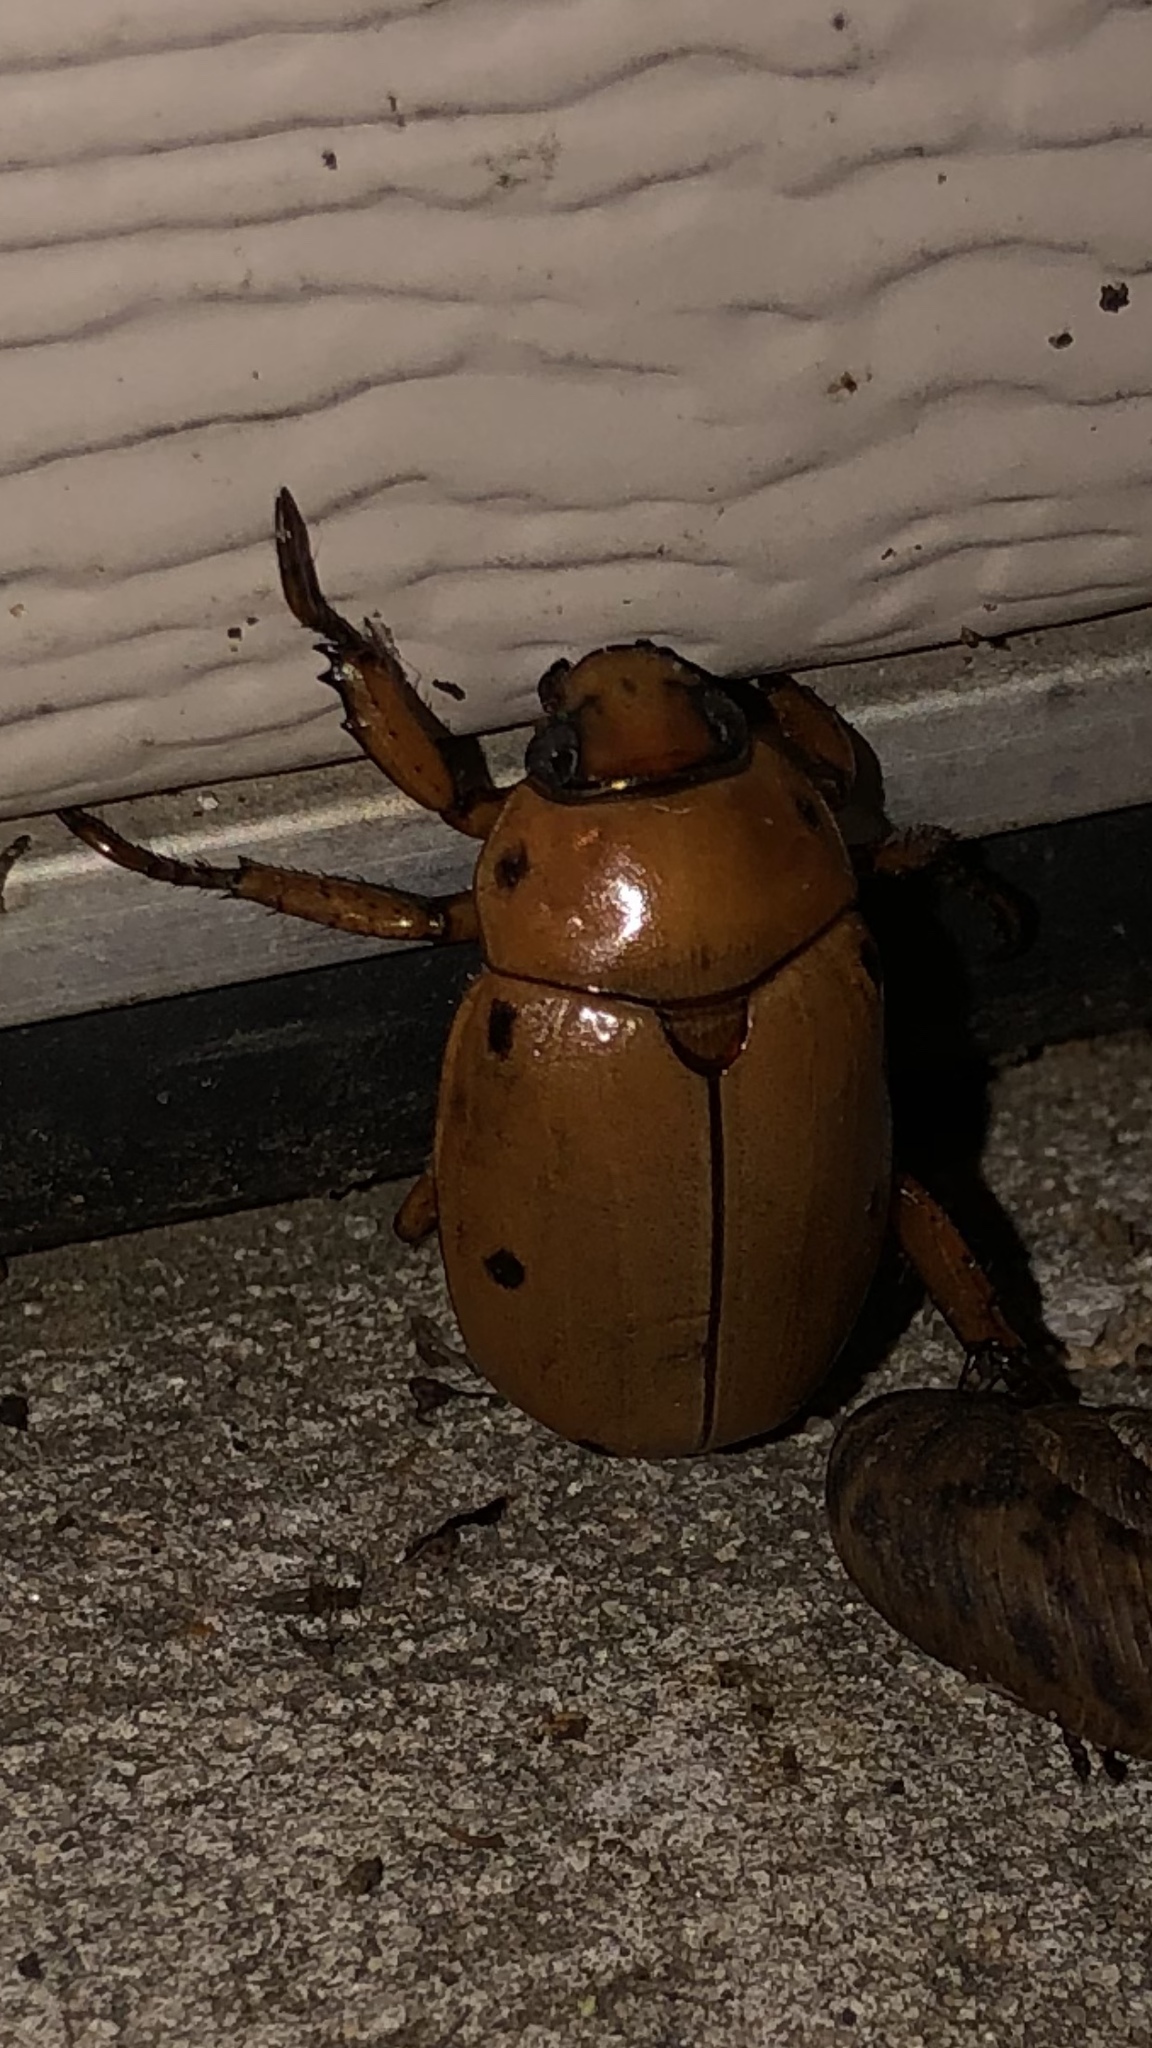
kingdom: Animalia
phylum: Arthropoda
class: Insecta
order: Coleoptera
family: Scarabaeidae
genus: Pelidnota
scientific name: Pelidnota punctata
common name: Grapevine beetle
